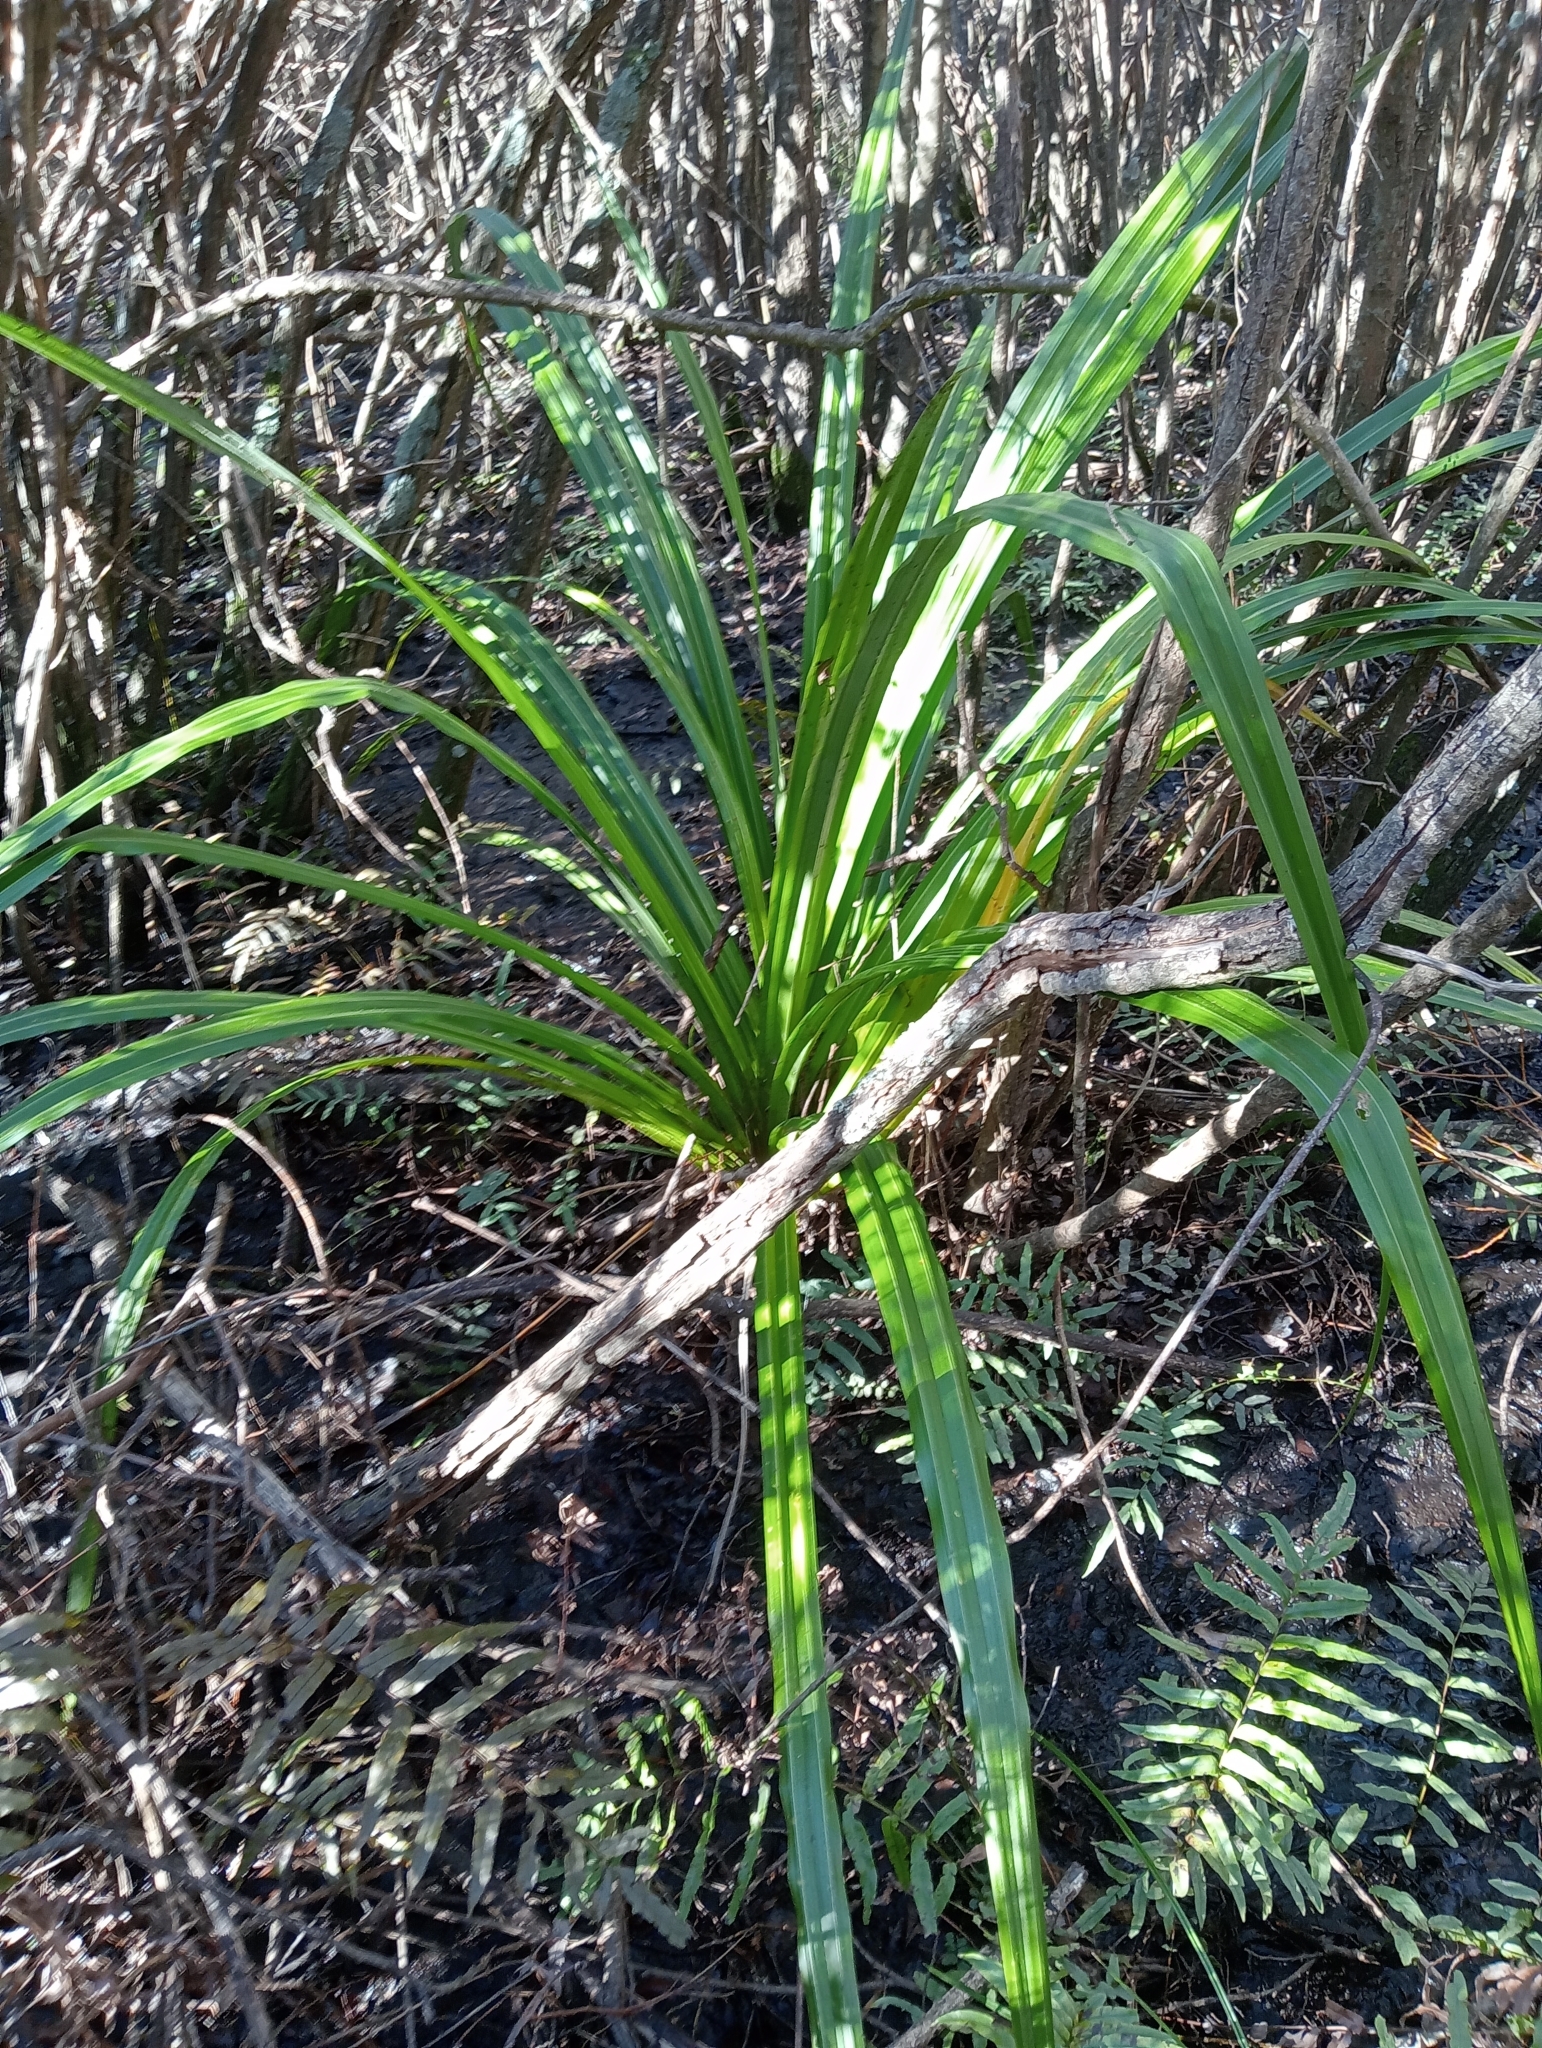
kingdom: Plantae
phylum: Tracheophyta
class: Liliopsida
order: Asparagales
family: Asteliaceae
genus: Astelia
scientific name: Astelia fragrans
